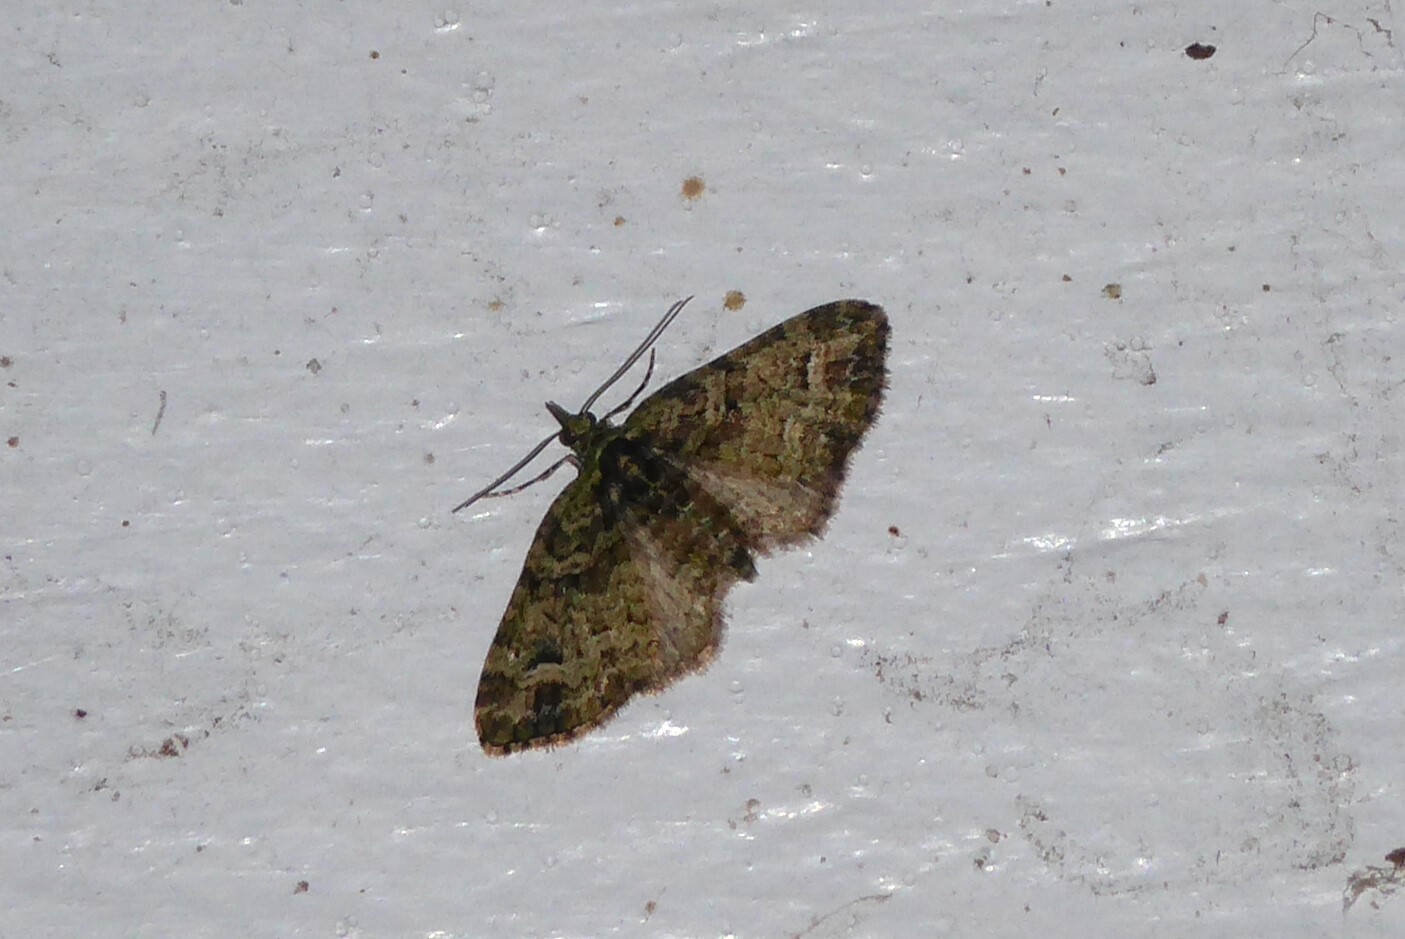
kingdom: Animalia
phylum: Arthropoda
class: Insecta
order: Lepidoptera
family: Geometridae
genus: Idaea
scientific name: Idaea mutanda
